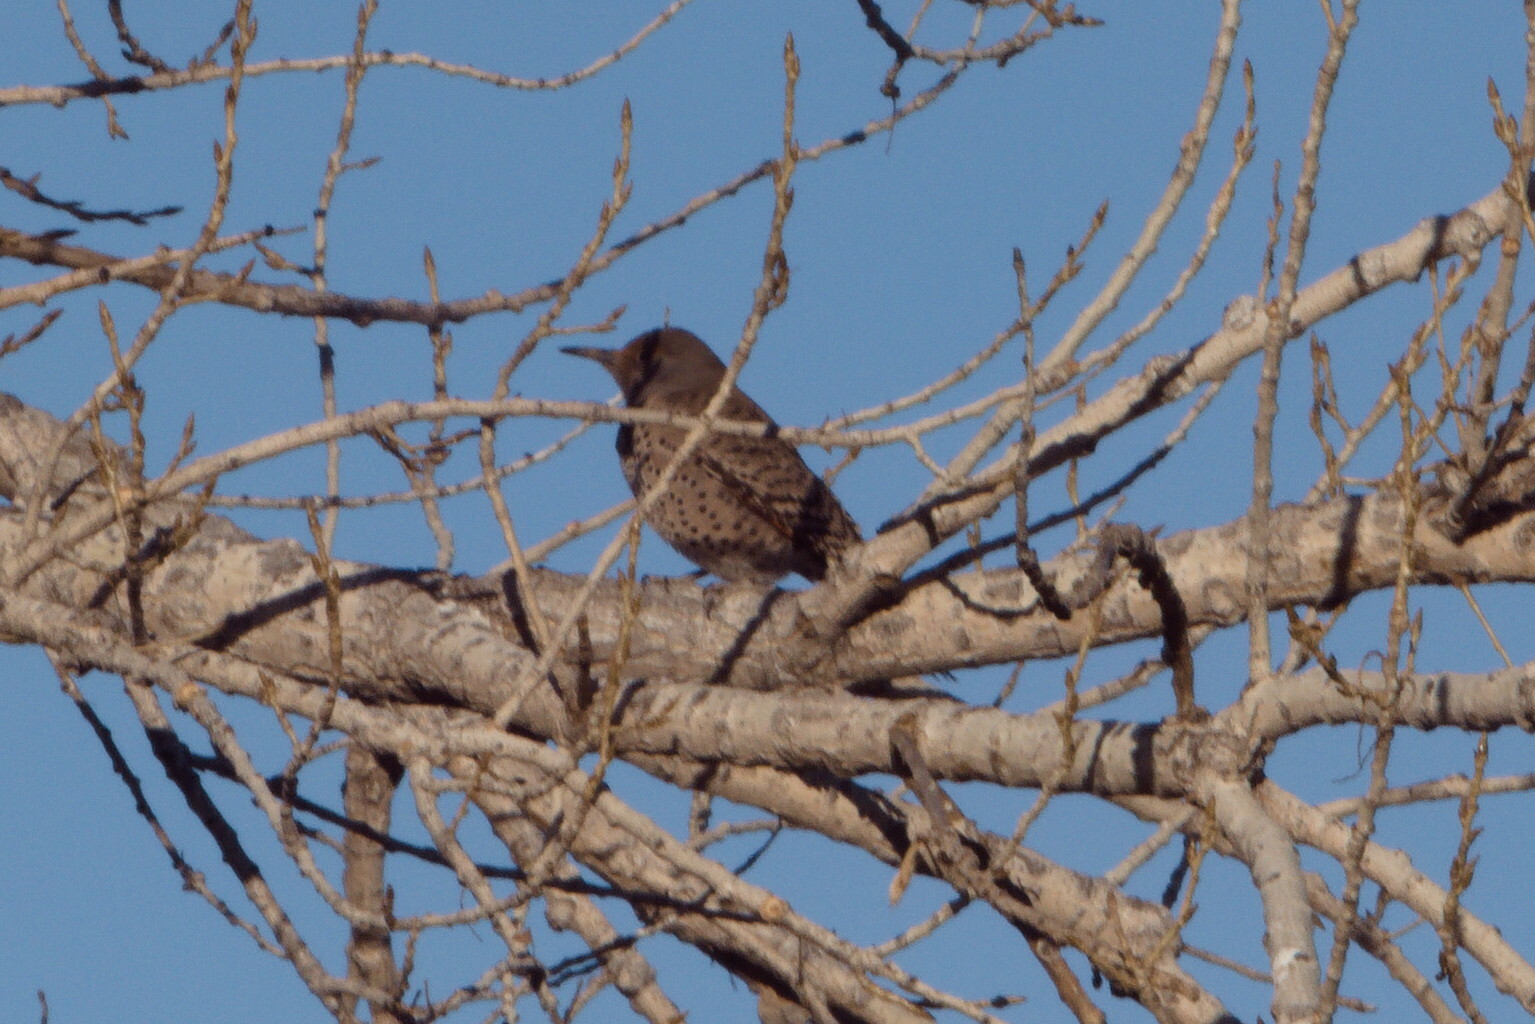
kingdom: Animalia
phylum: Chordata
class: Aves
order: Piciformes
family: Picidae
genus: Colaptes
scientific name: Colaptes auratus
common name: Northern flicker
